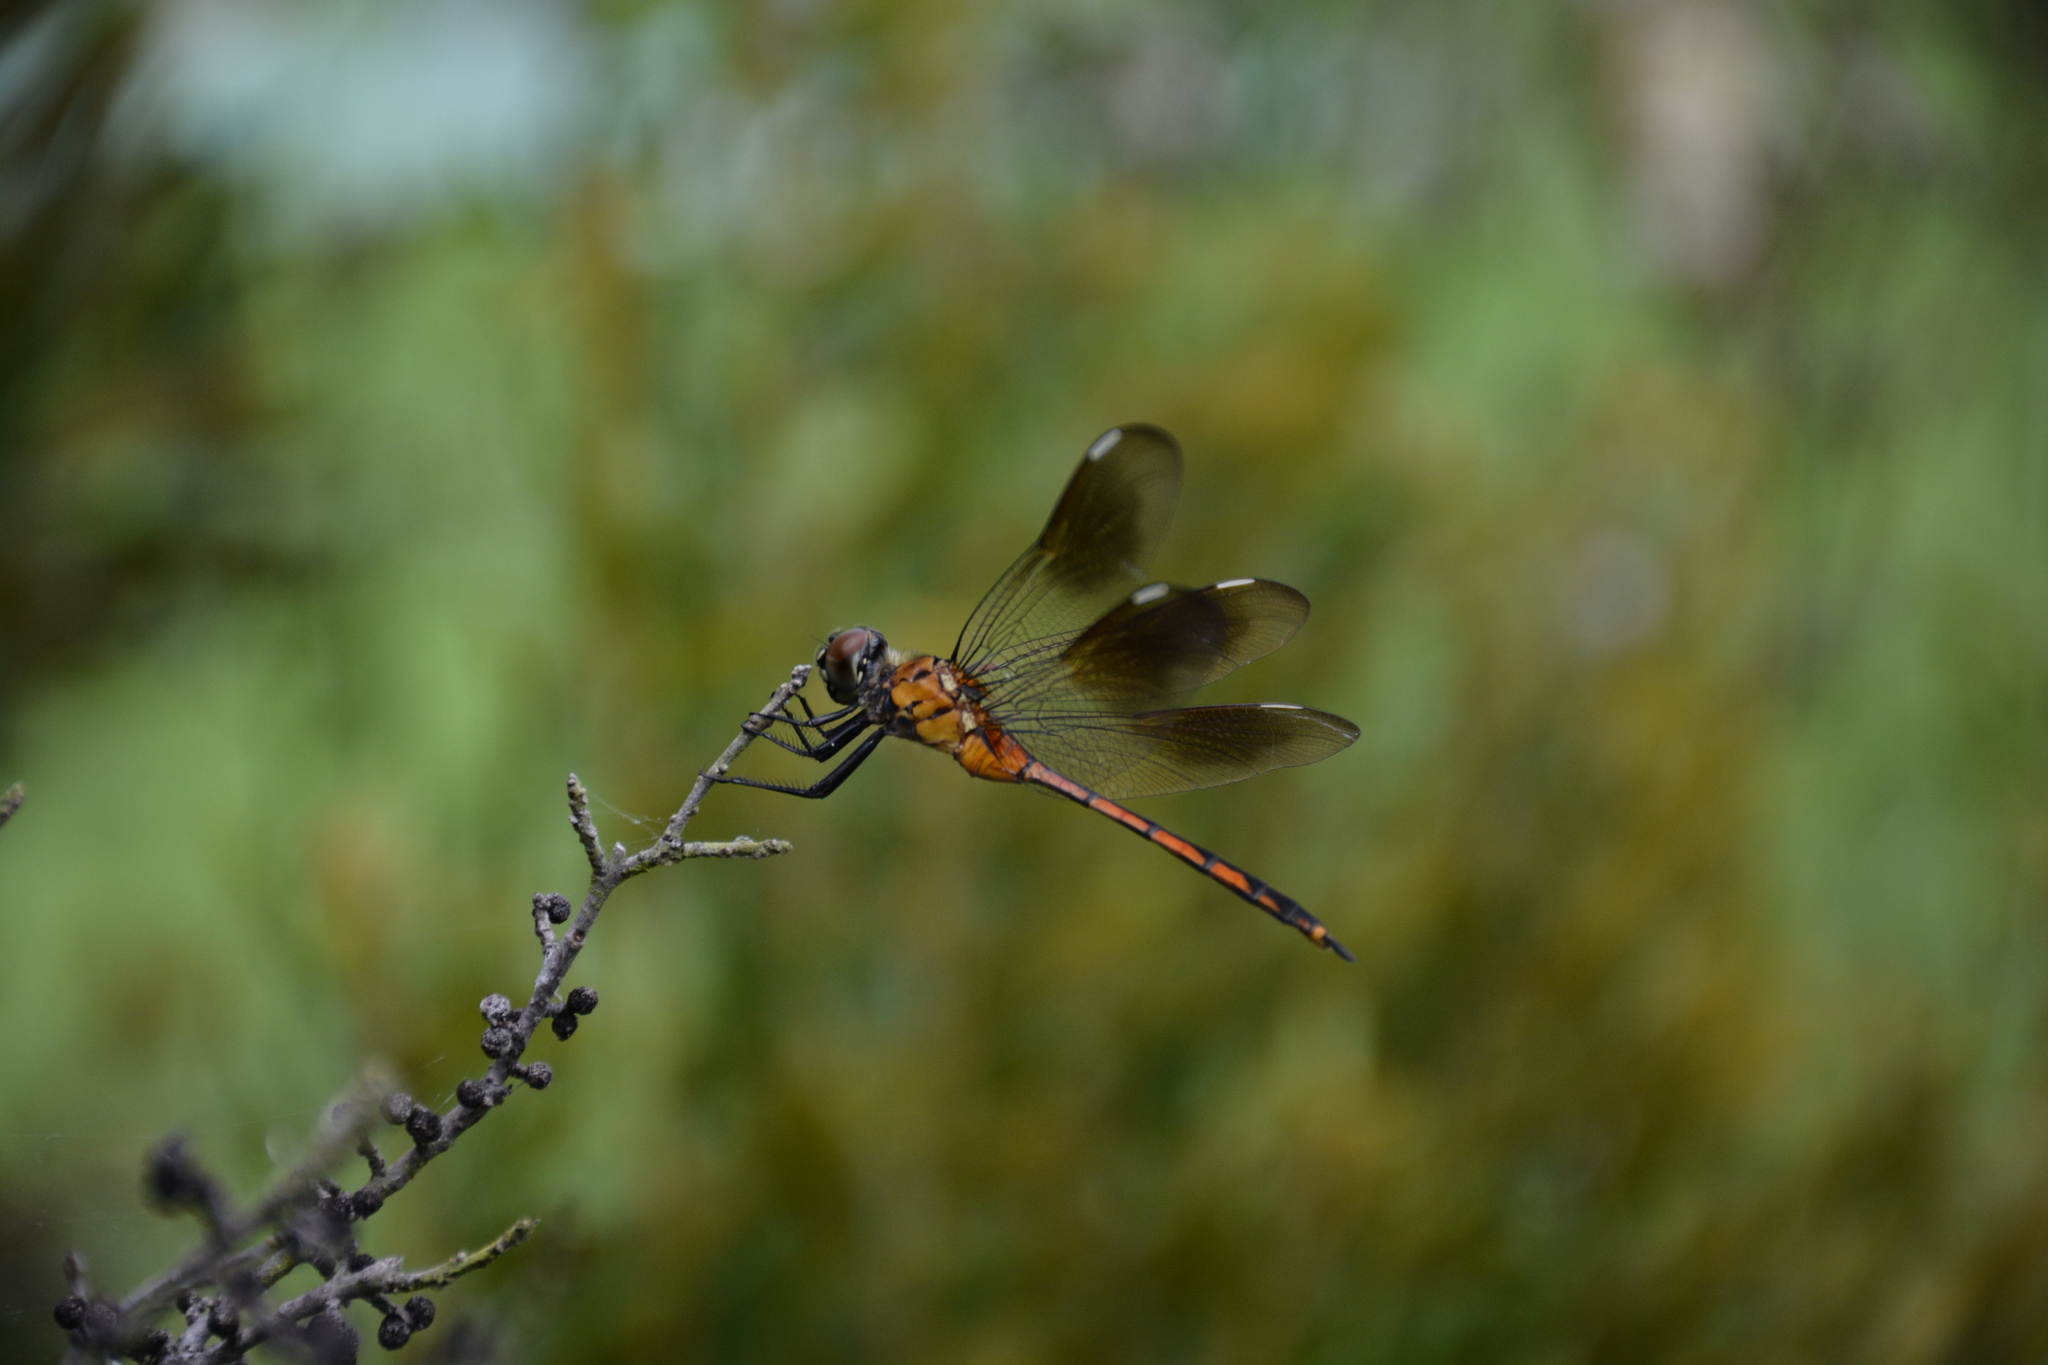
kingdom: Animalia
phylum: Arthropoda
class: Insecta
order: Odonata
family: Libellulidae
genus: Brachymesia
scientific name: Brachymesia gravida
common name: Four-spotted pennant
